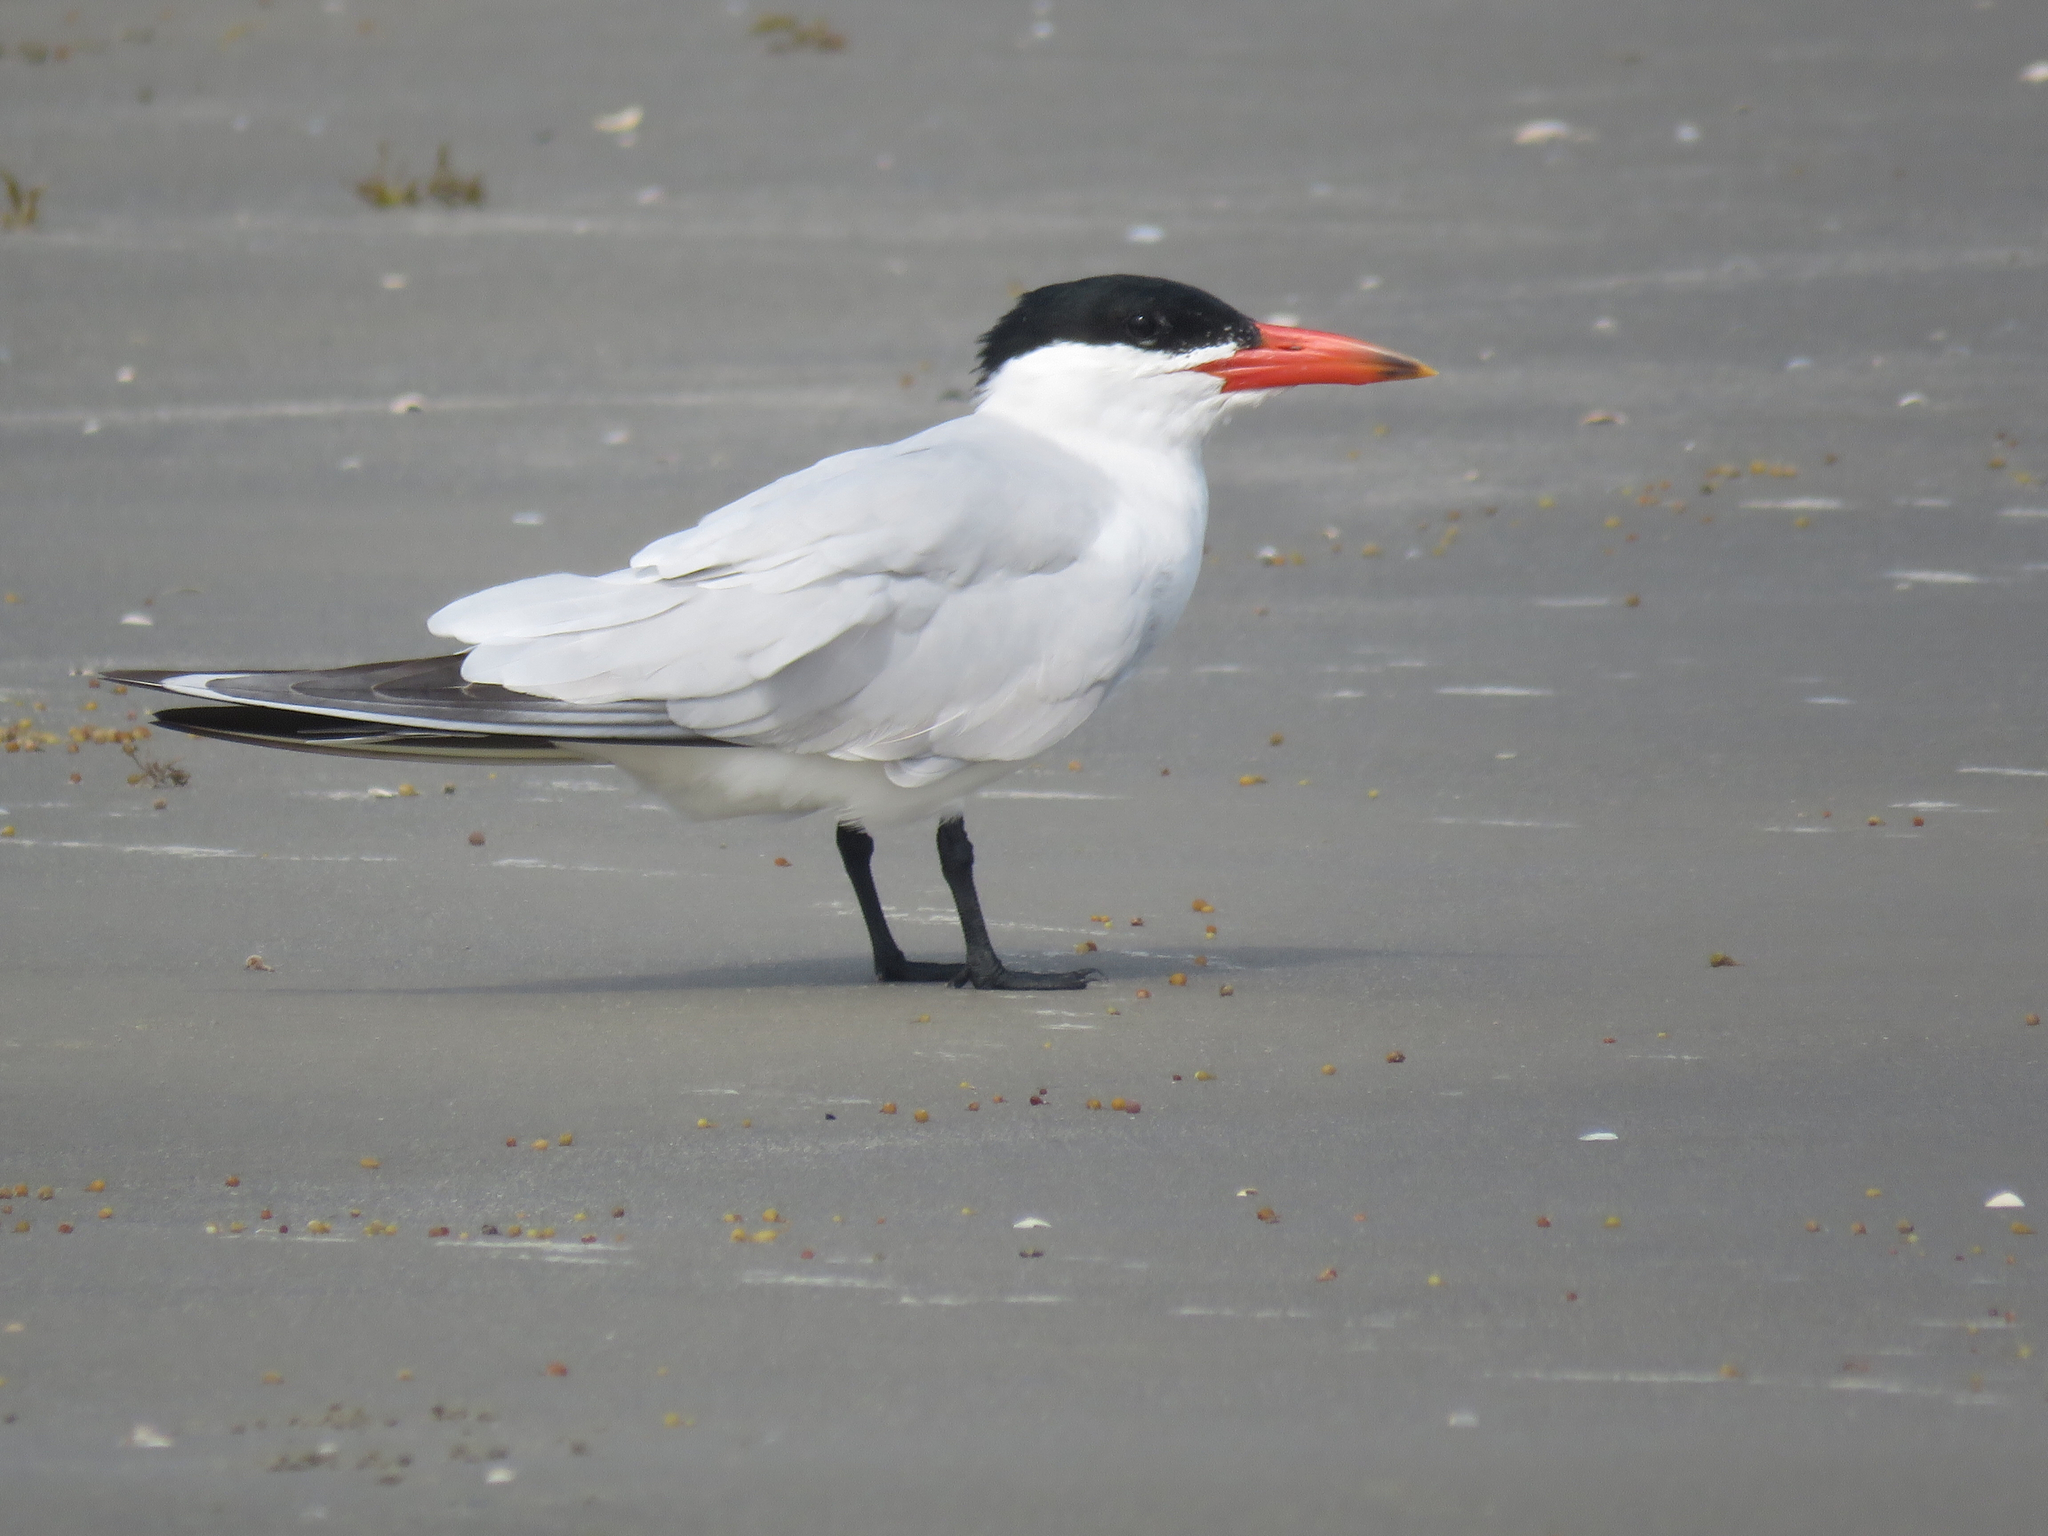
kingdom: Animalia
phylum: Chordata
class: Aves
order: Charadriiformes
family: Laridae
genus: Hydroprogne
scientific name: Hydroprogne caspia
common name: Caspian tern
